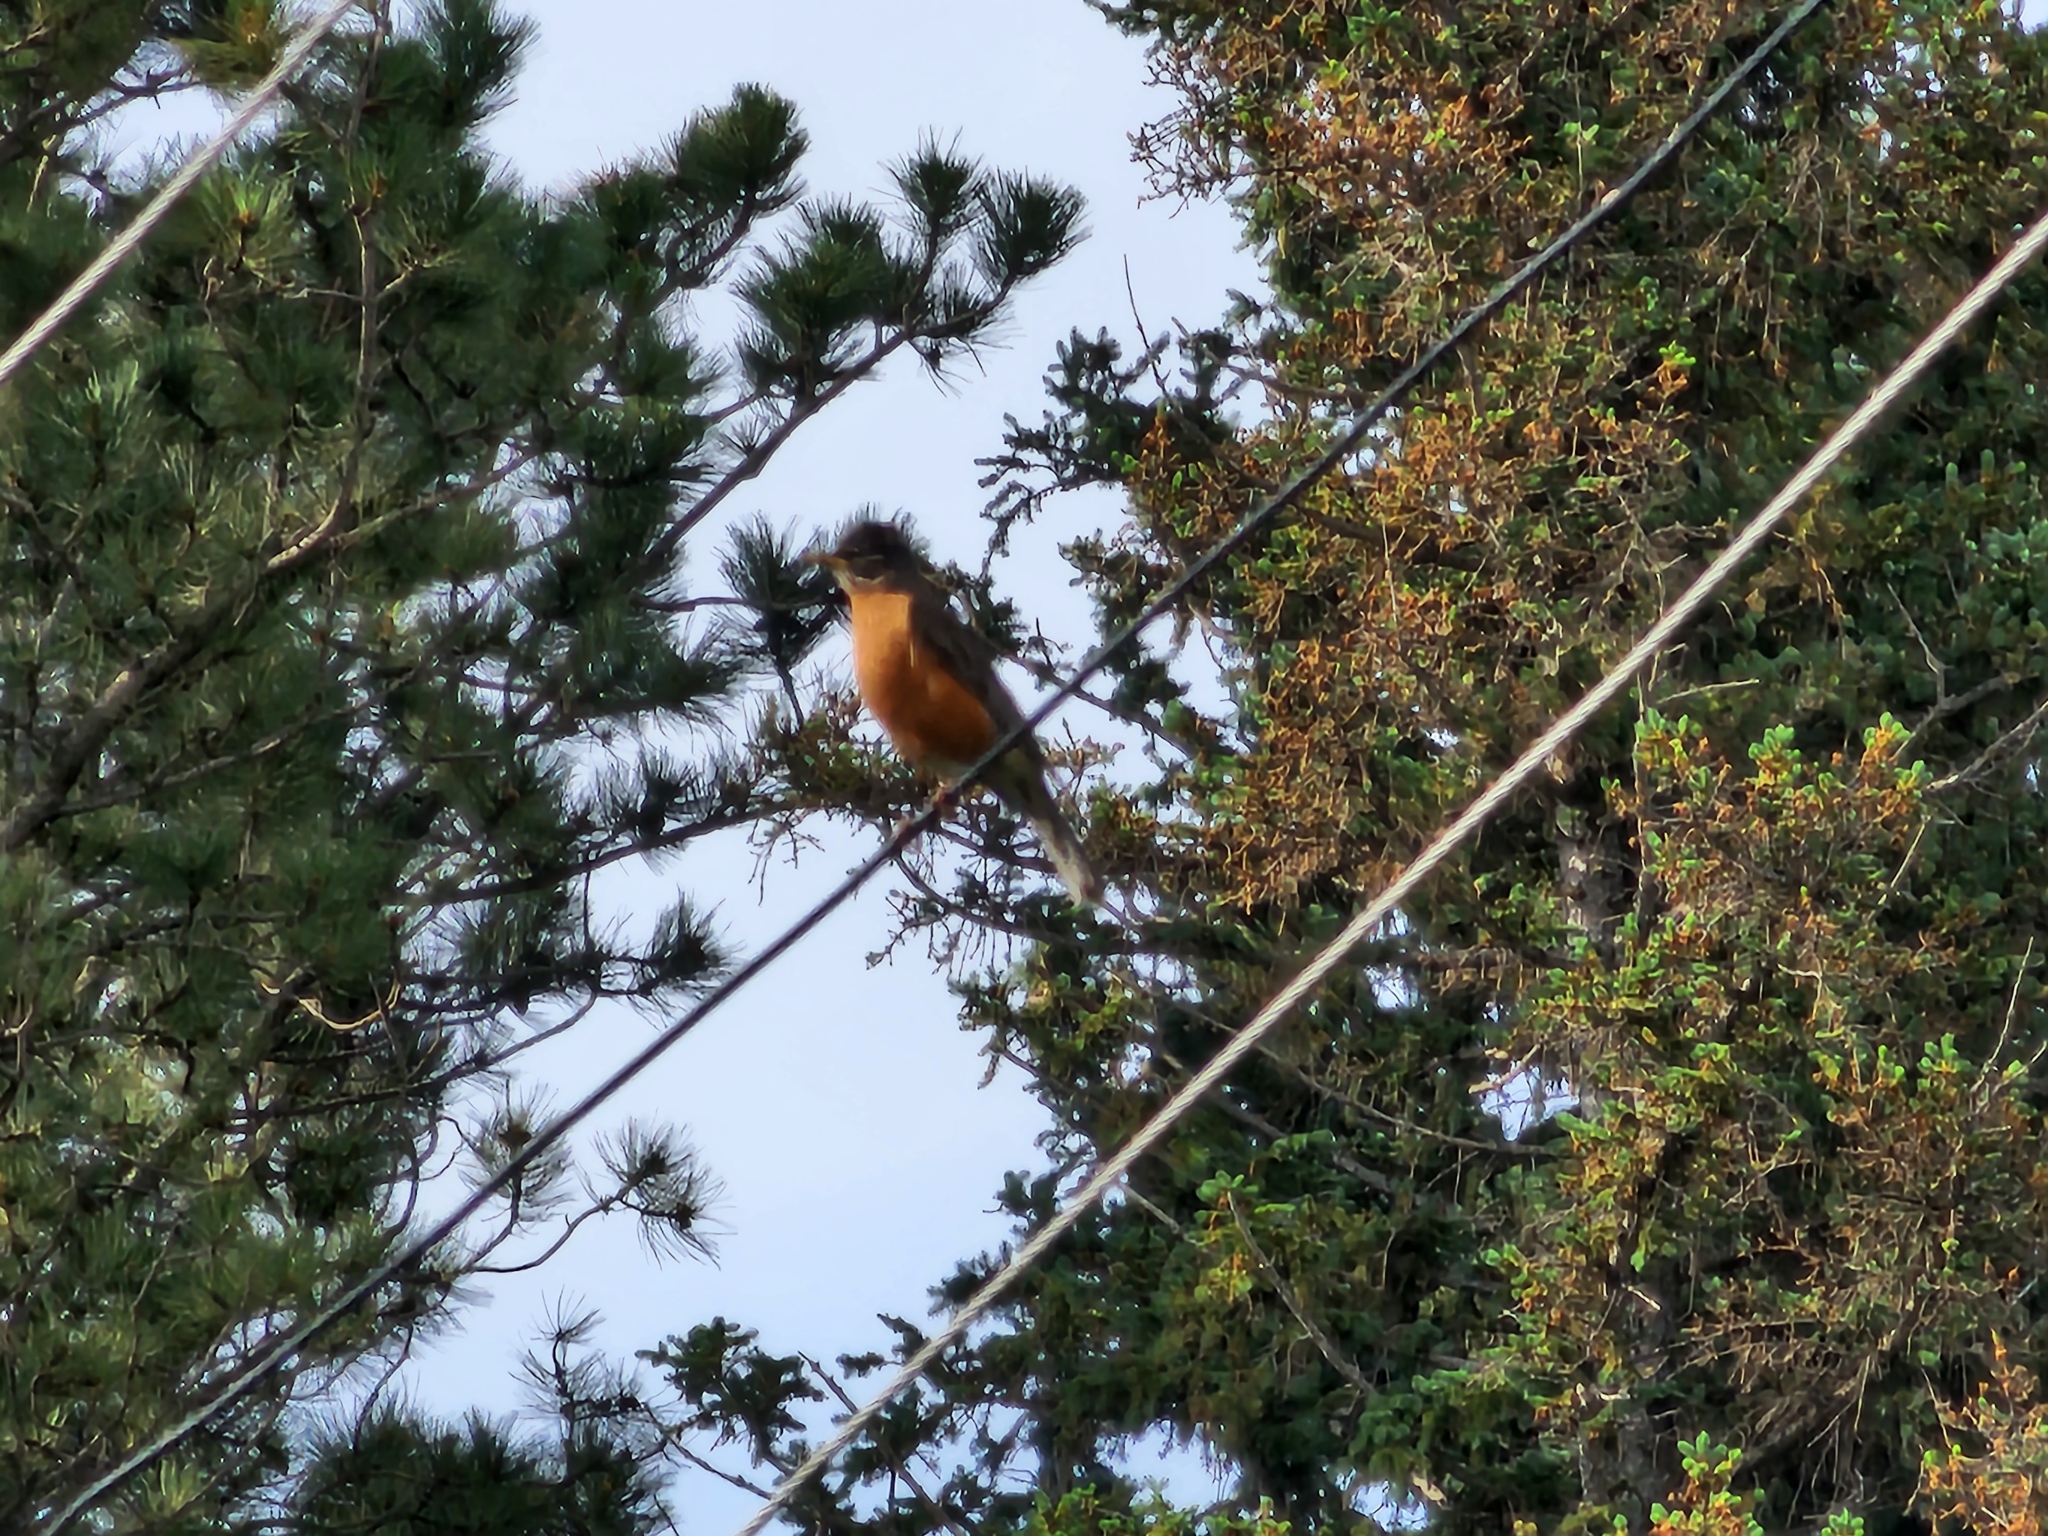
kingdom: Animalia
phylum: Chordata
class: Aves
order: Passeriformes
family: Turdidae
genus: Turdus
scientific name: Turdus migratorius
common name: American robin
